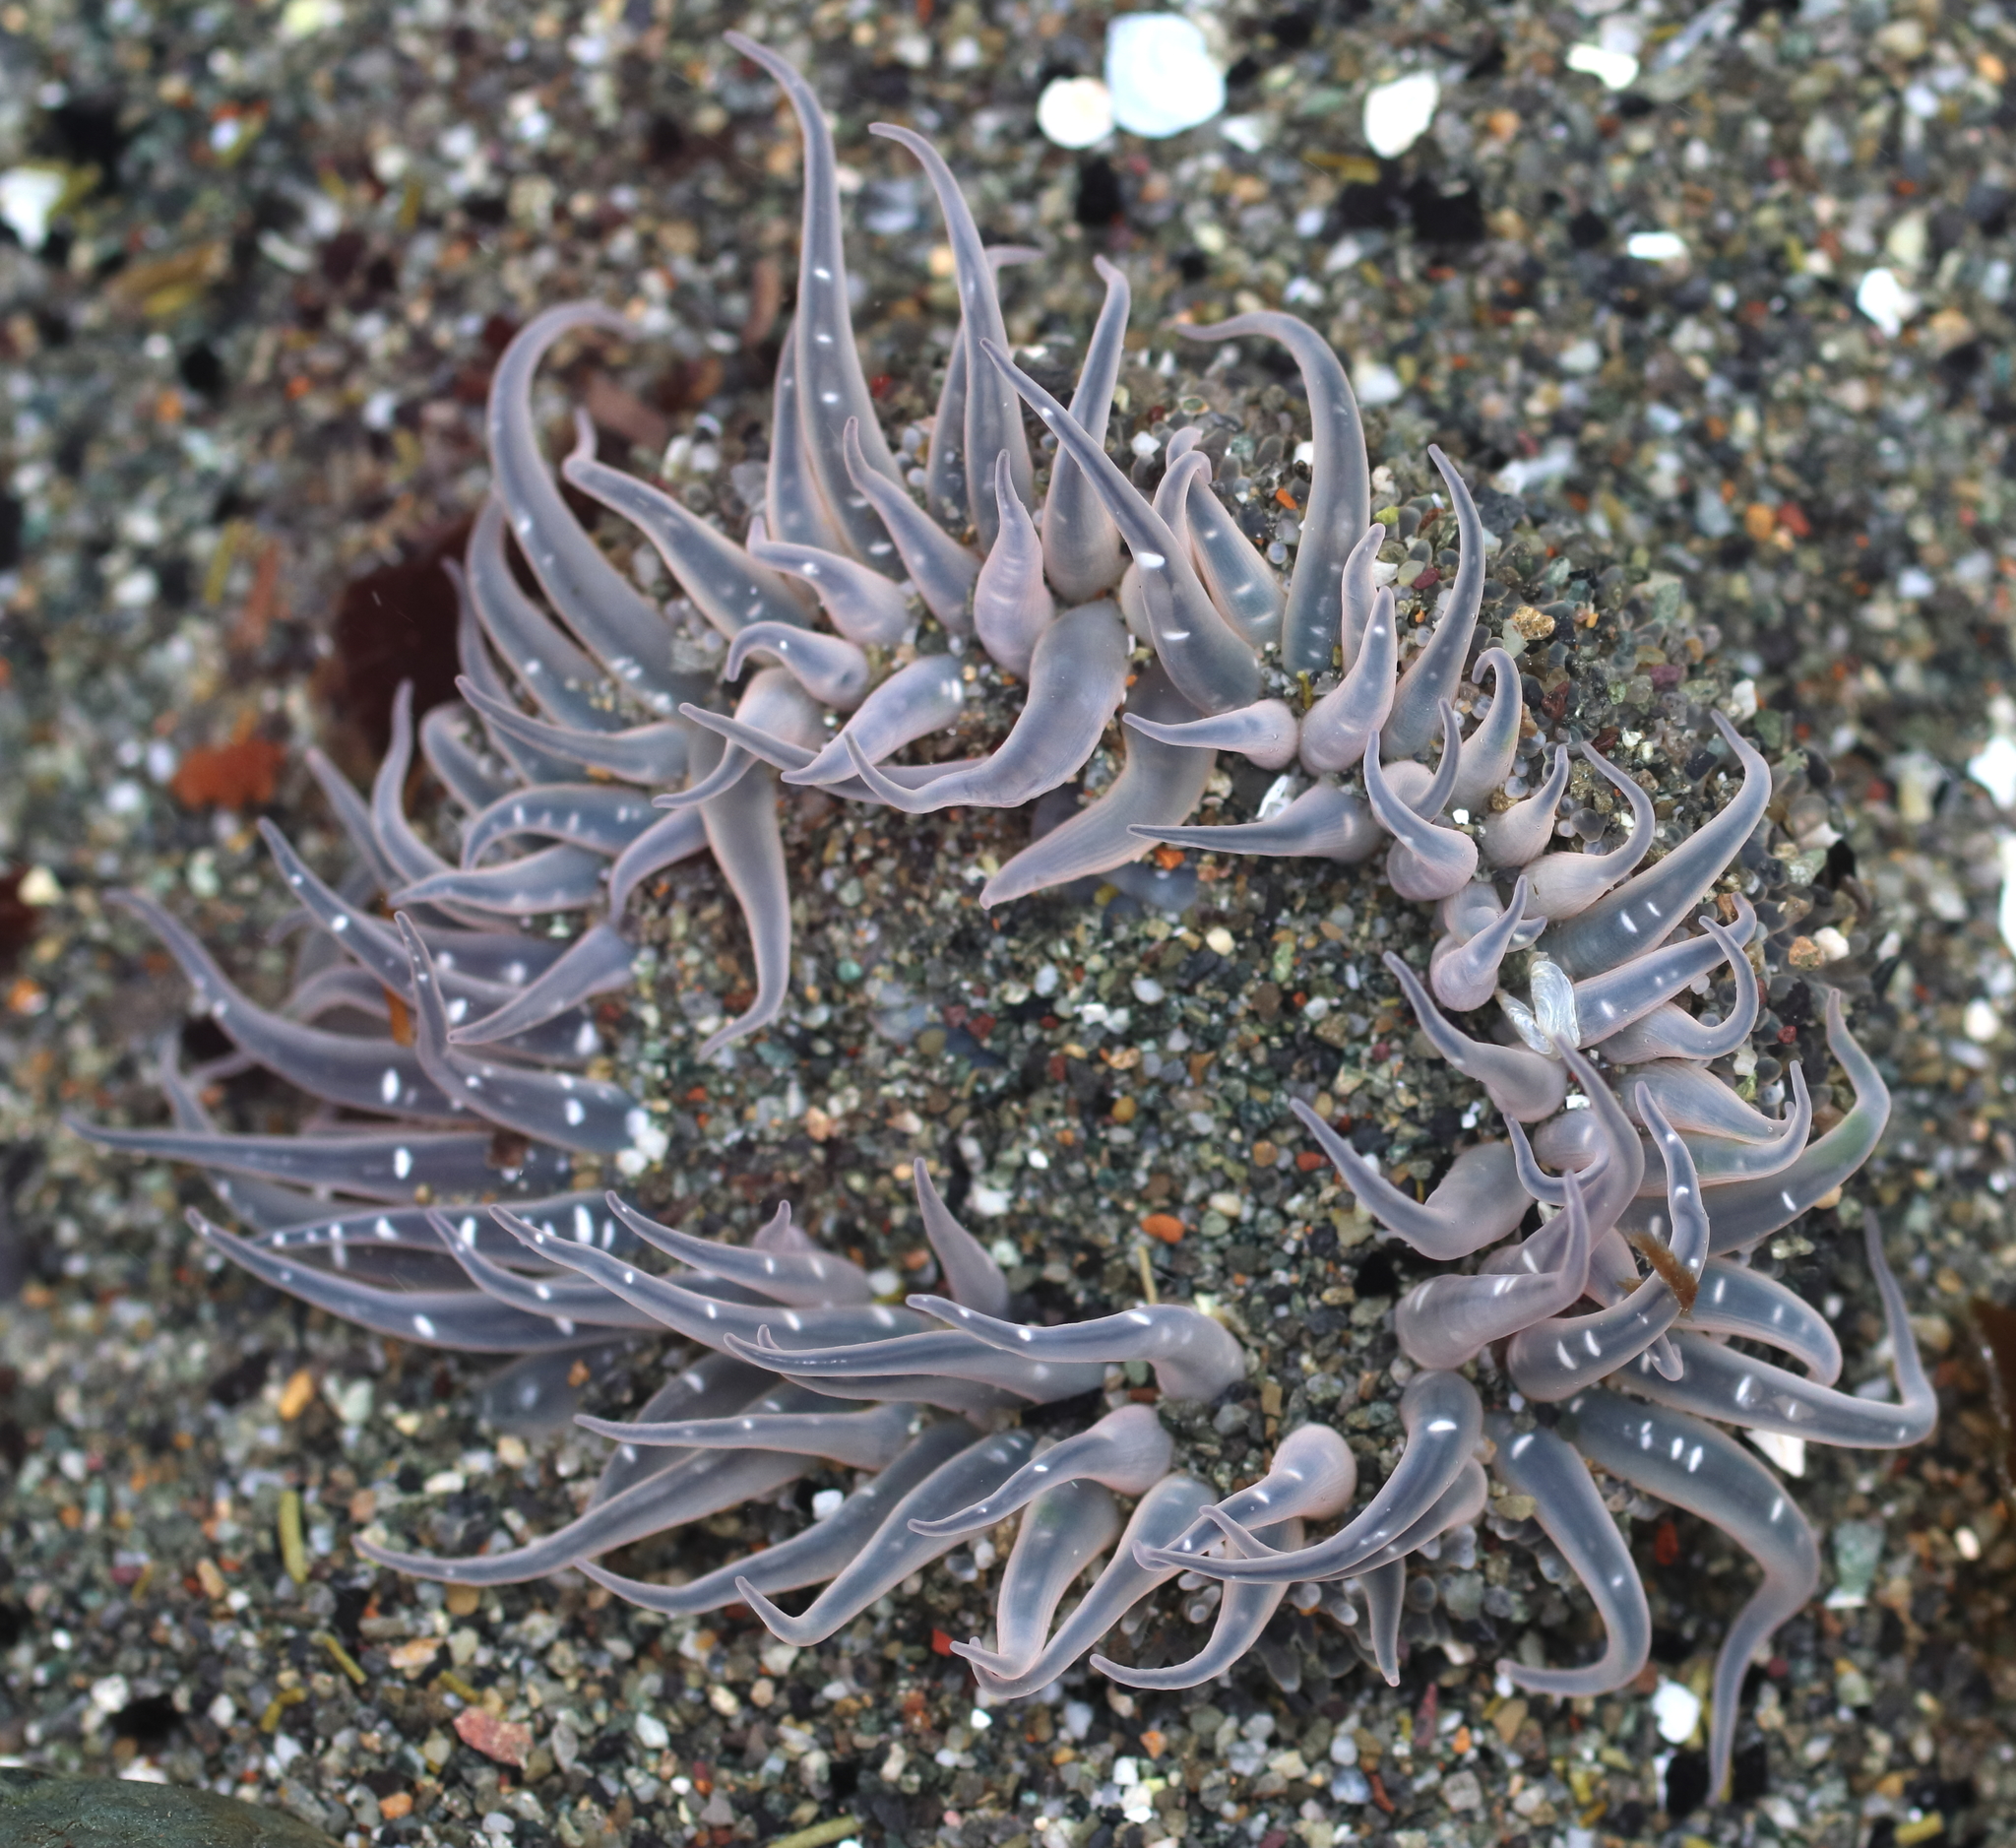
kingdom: Animalia
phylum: Cnidaria
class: Anthozoa
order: Actiniaria
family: Actiniidae
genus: Anthopleura
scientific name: Anthopleura artemisia
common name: Buried sea anemone
